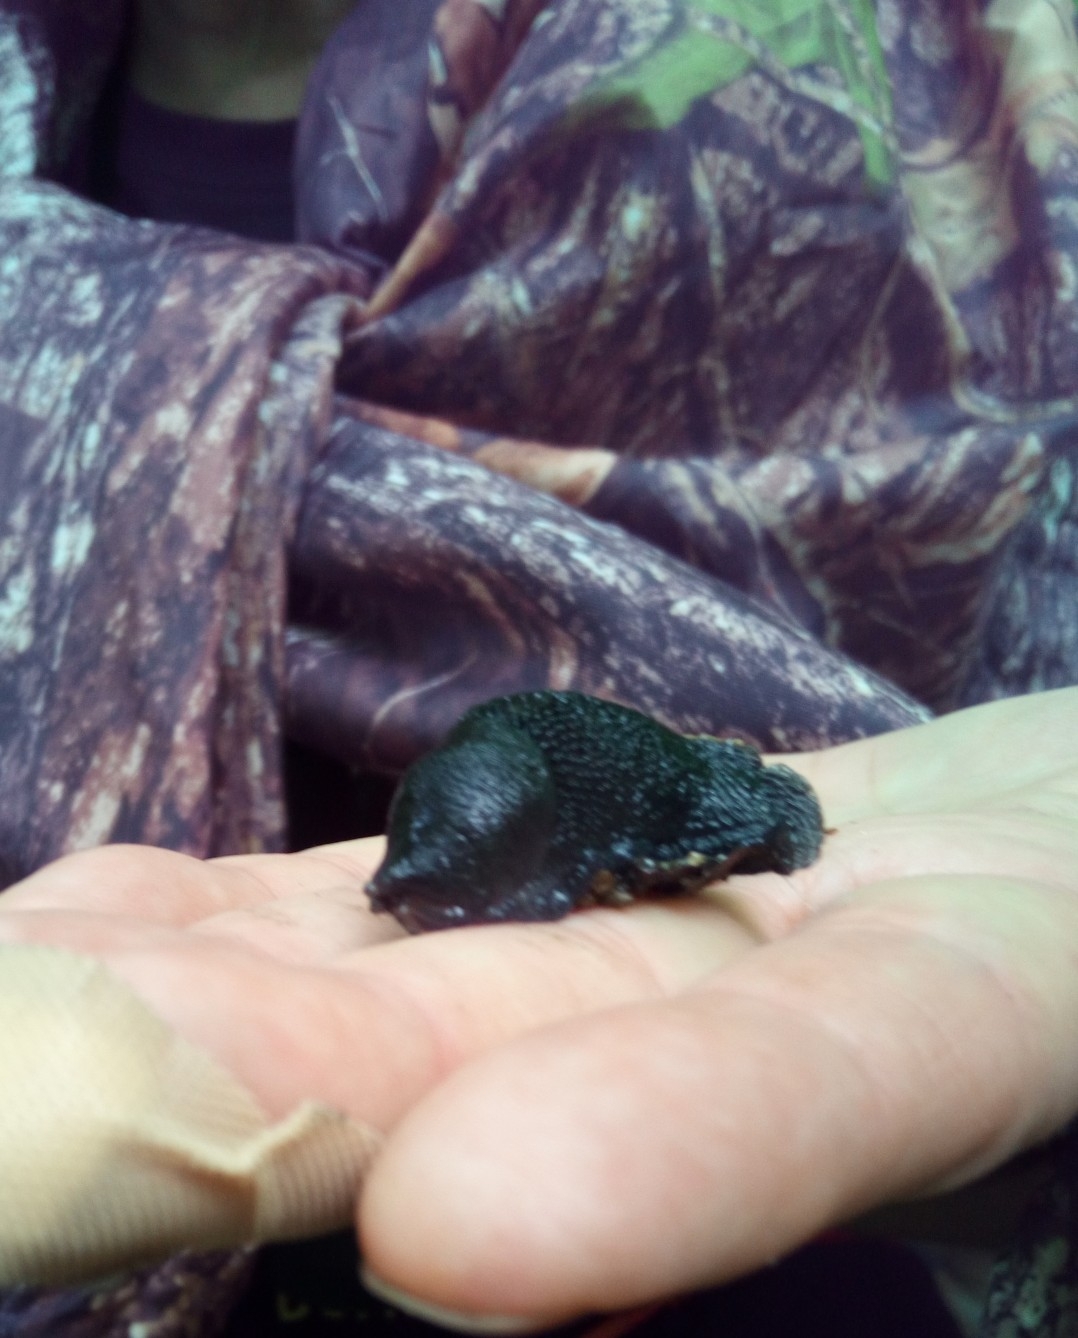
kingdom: Animalia
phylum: Mollusca
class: Gastropoda
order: Stylommatophora
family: Limacidae
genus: Limax
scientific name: Limax cinereoniger
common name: Ash-black slug
